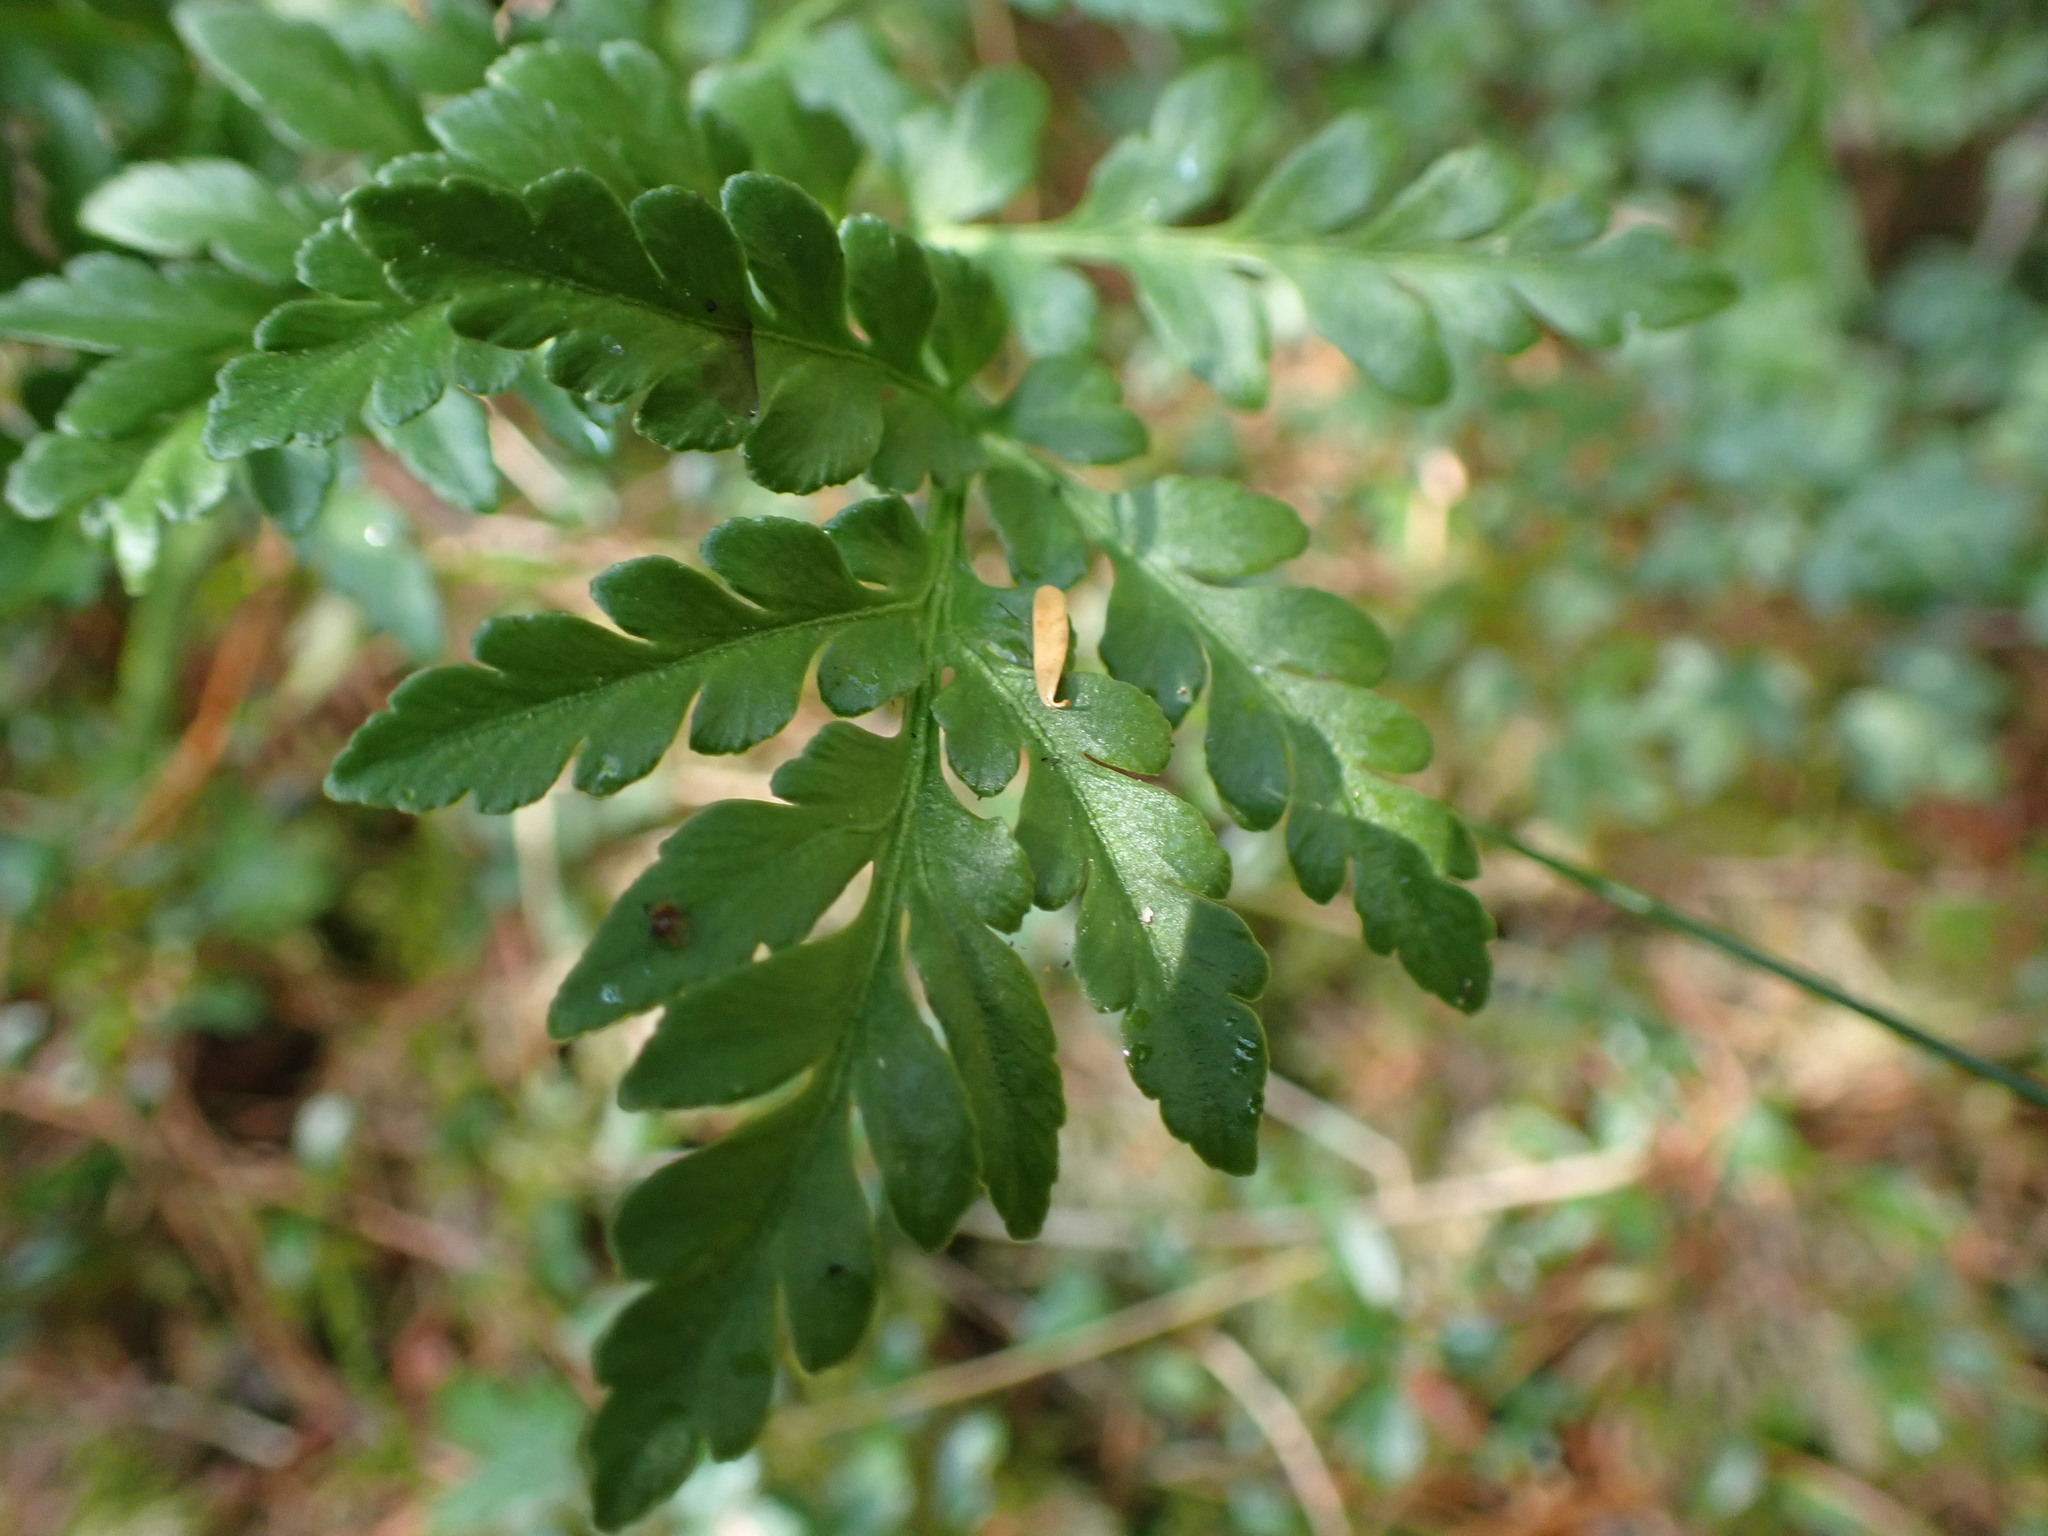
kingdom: Plantae
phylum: Tracheophyta
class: Polypodiopsida
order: Ophioglossales
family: Ophioglossaceae
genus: Sceptridium
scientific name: Sceptridium multifidum
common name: Leathery grape fern
